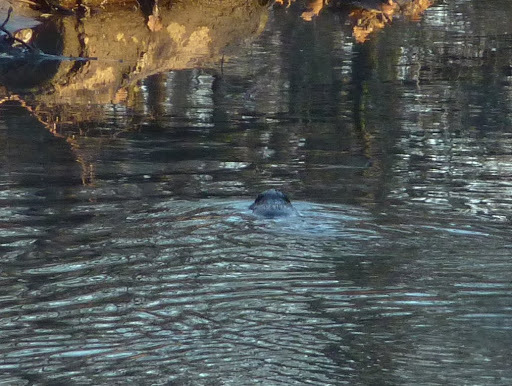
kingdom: Animalia
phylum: Chordata
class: Mammalia
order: Rodentia
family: Cricetidae
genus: Ondatra
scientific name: Ondatra zibethicus
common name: Muskrat
